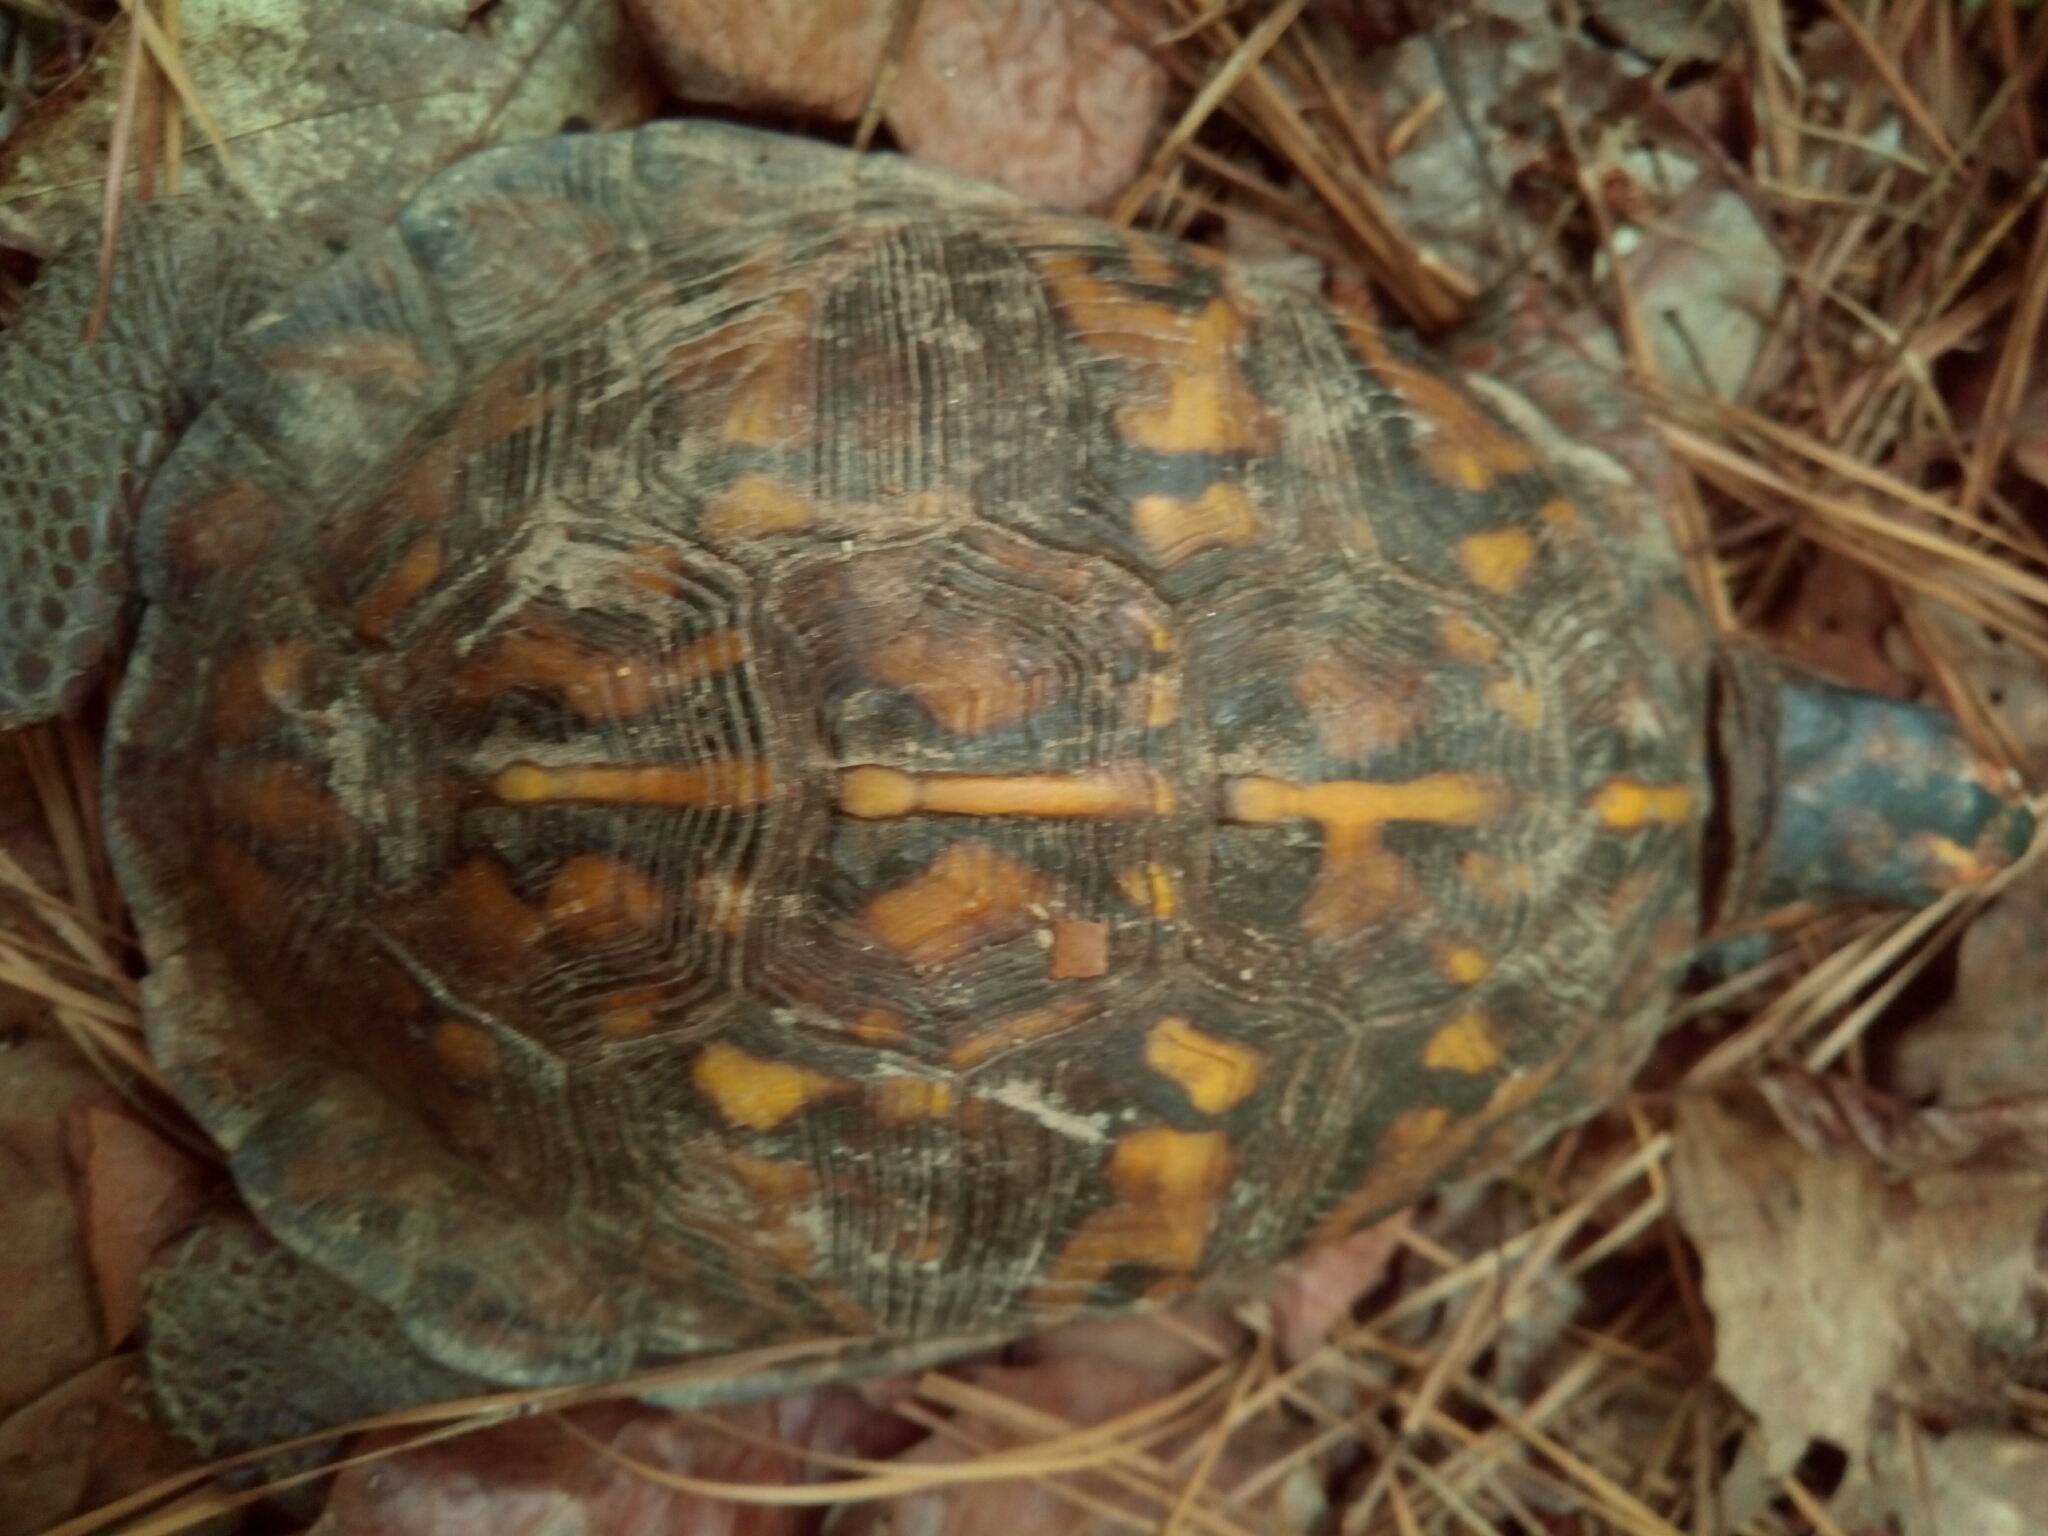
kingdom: Animalia
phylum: Chordata
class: Testudines
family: Emydidae
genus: Terrapene
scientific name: Terrapene carolina
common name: Common box turtle
